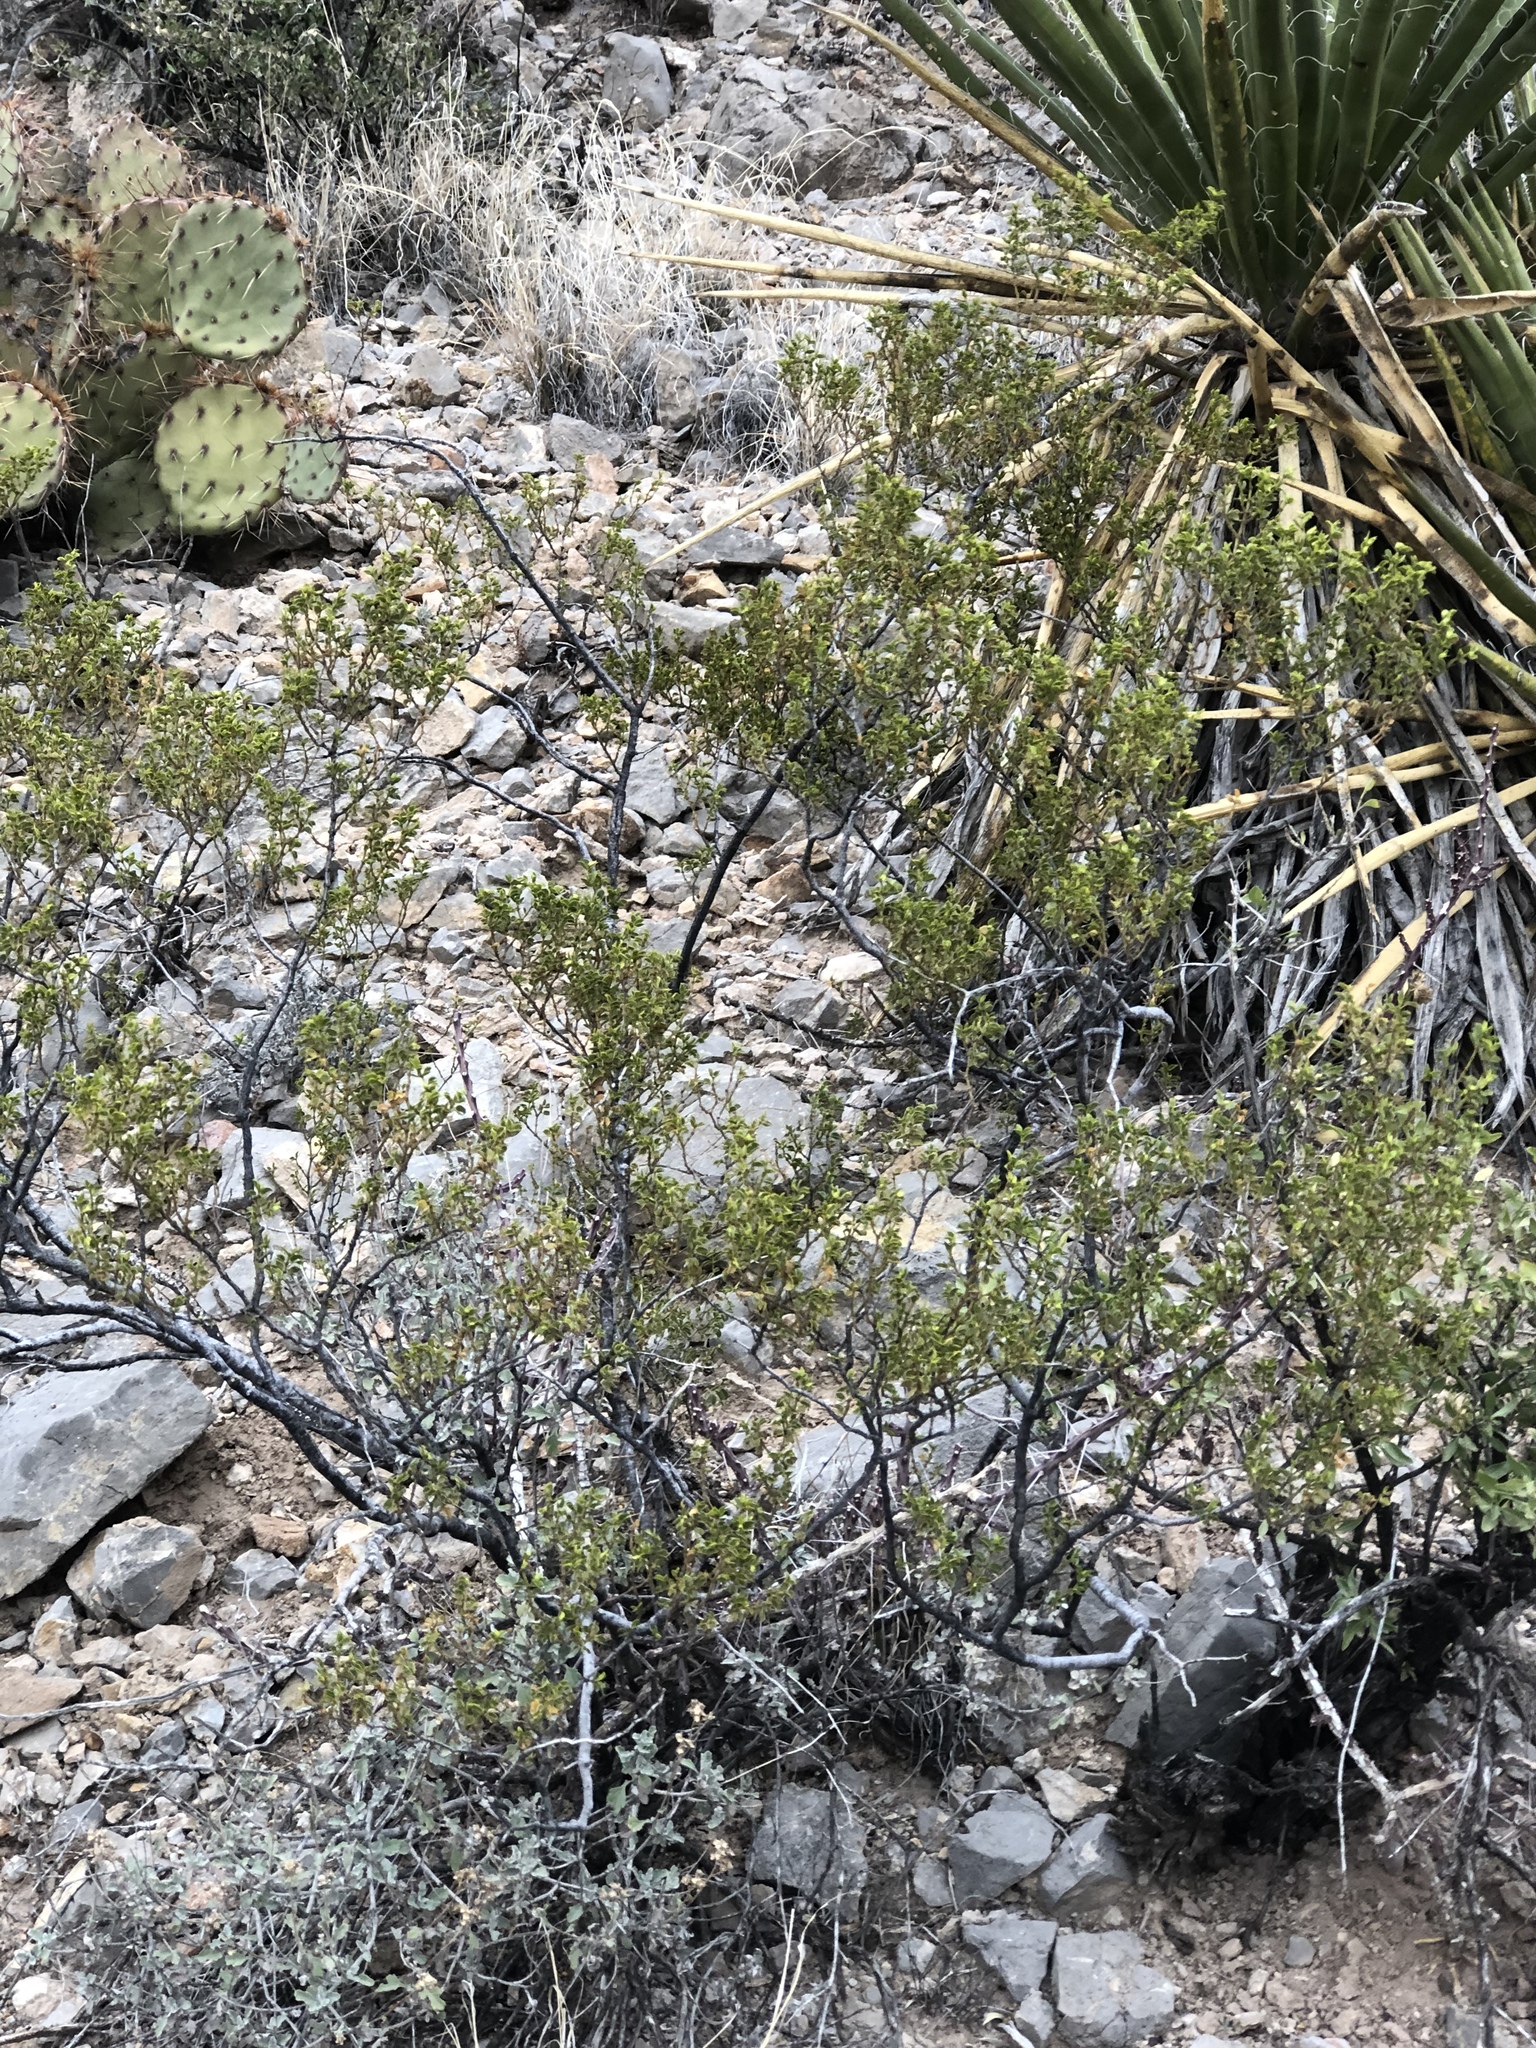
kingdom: Plantae
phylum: Tracheophyta
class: Magnoliopsida
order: Zygophyllales
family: Zygophyllaceae
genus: Larrea
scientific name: Larrea tridentata
